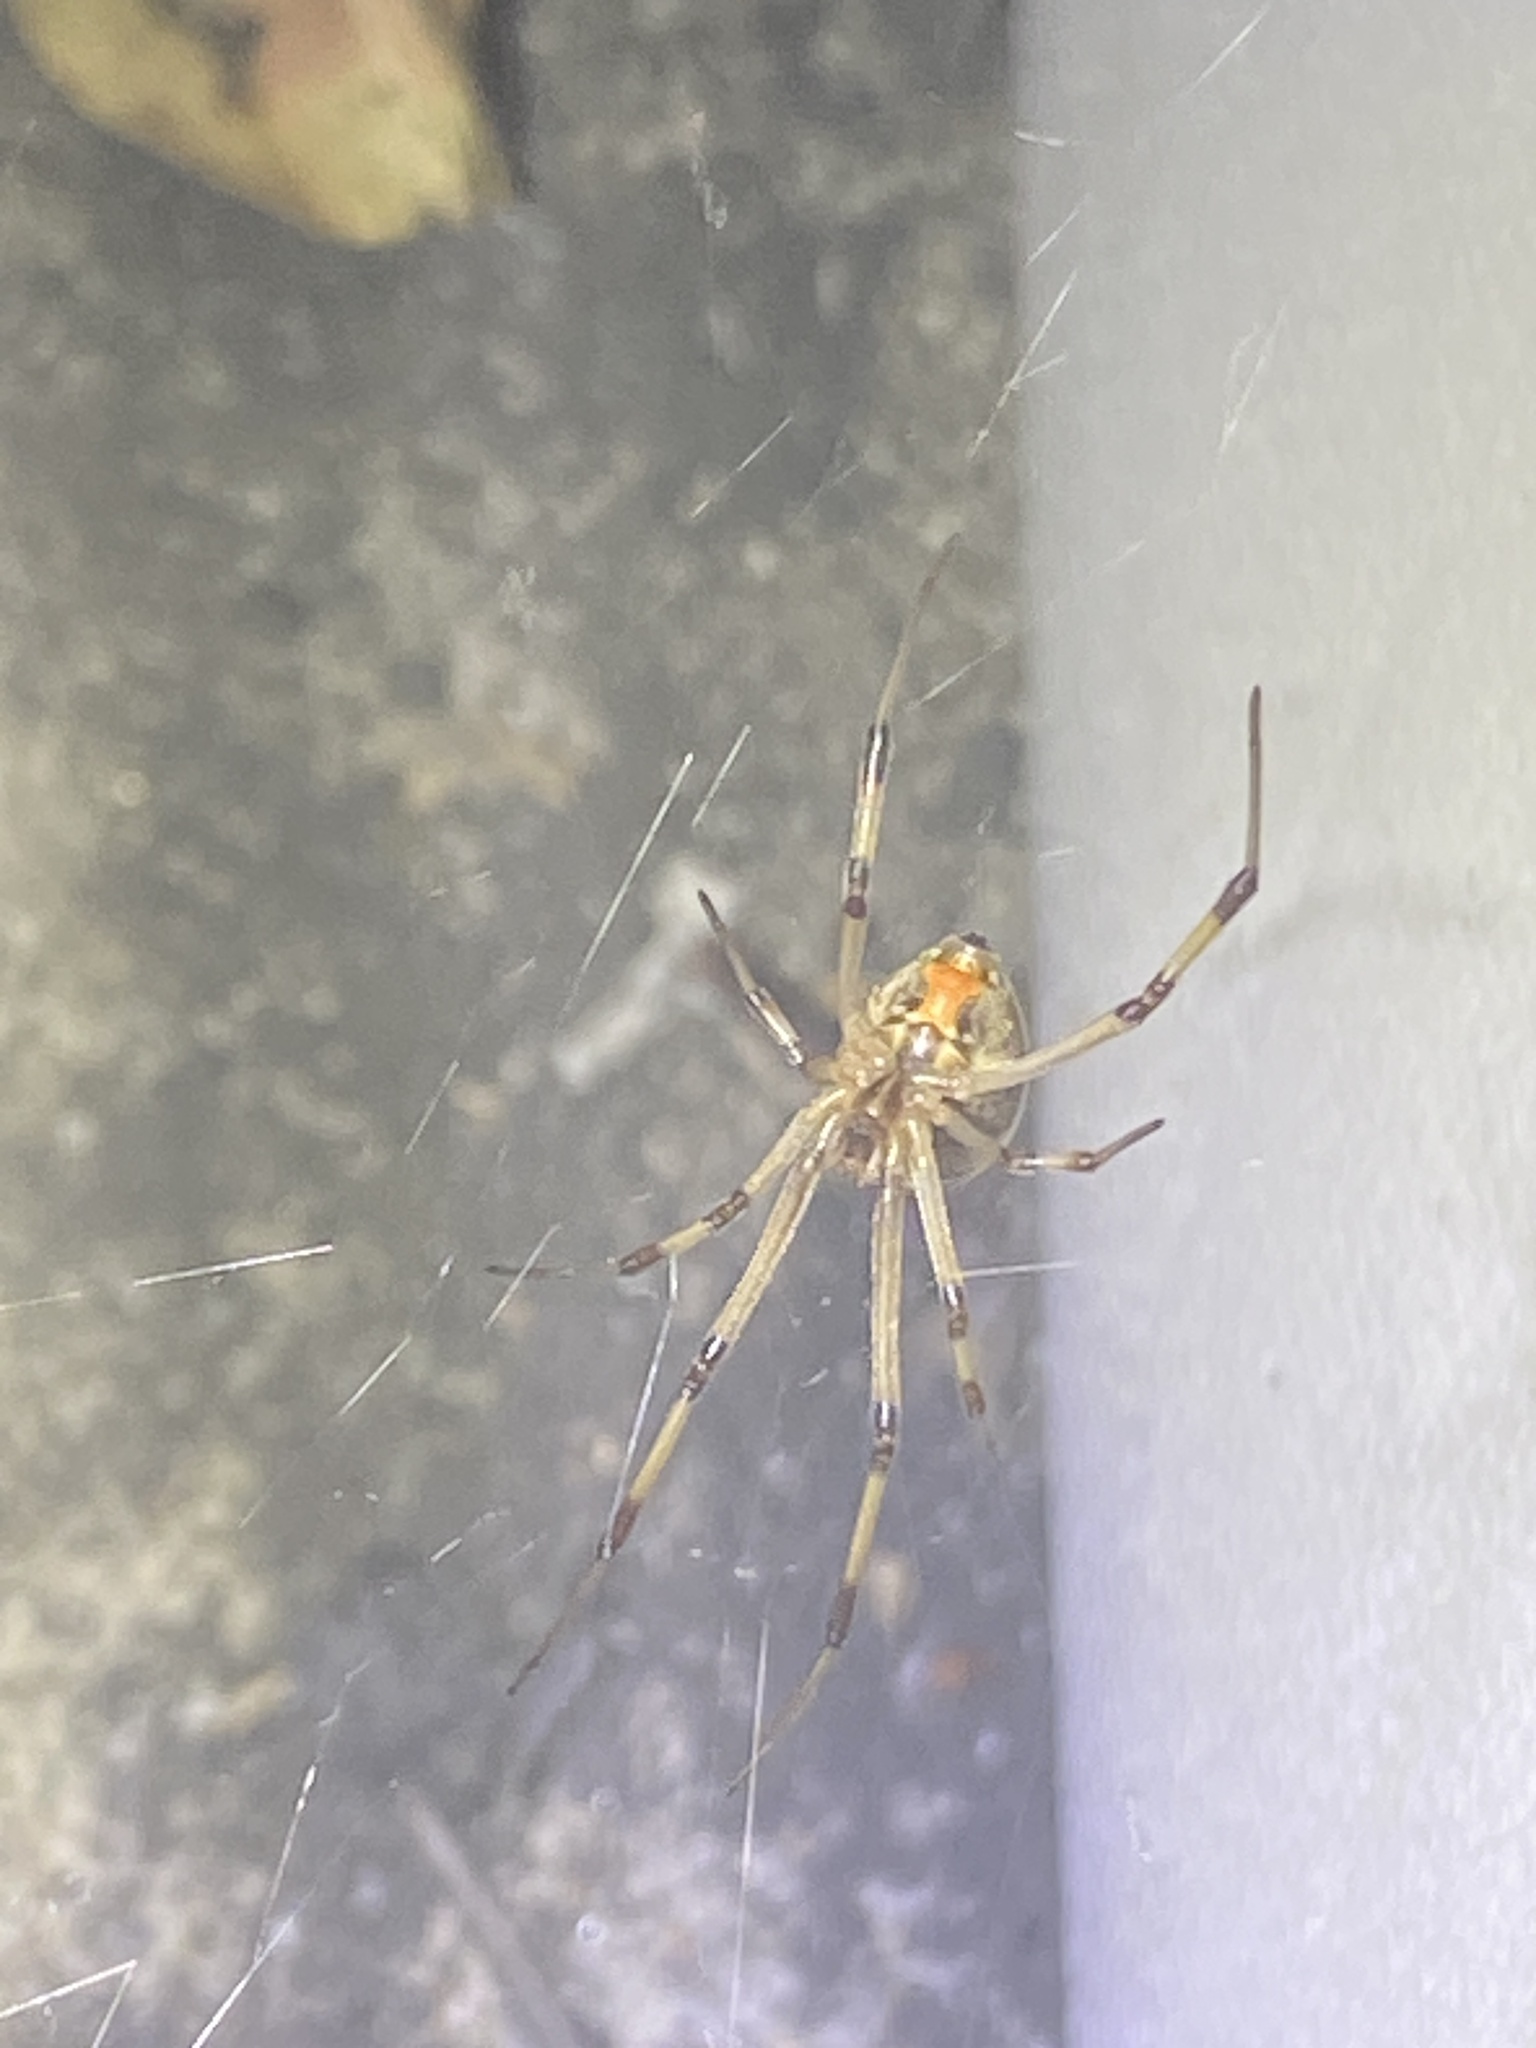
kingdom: Animalia
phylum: Arthropoda
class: Arachnida
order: Araneae
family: Theridiidae
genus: Latrodectus
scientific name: Latrodectus geometricus
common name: Brown widow spider
